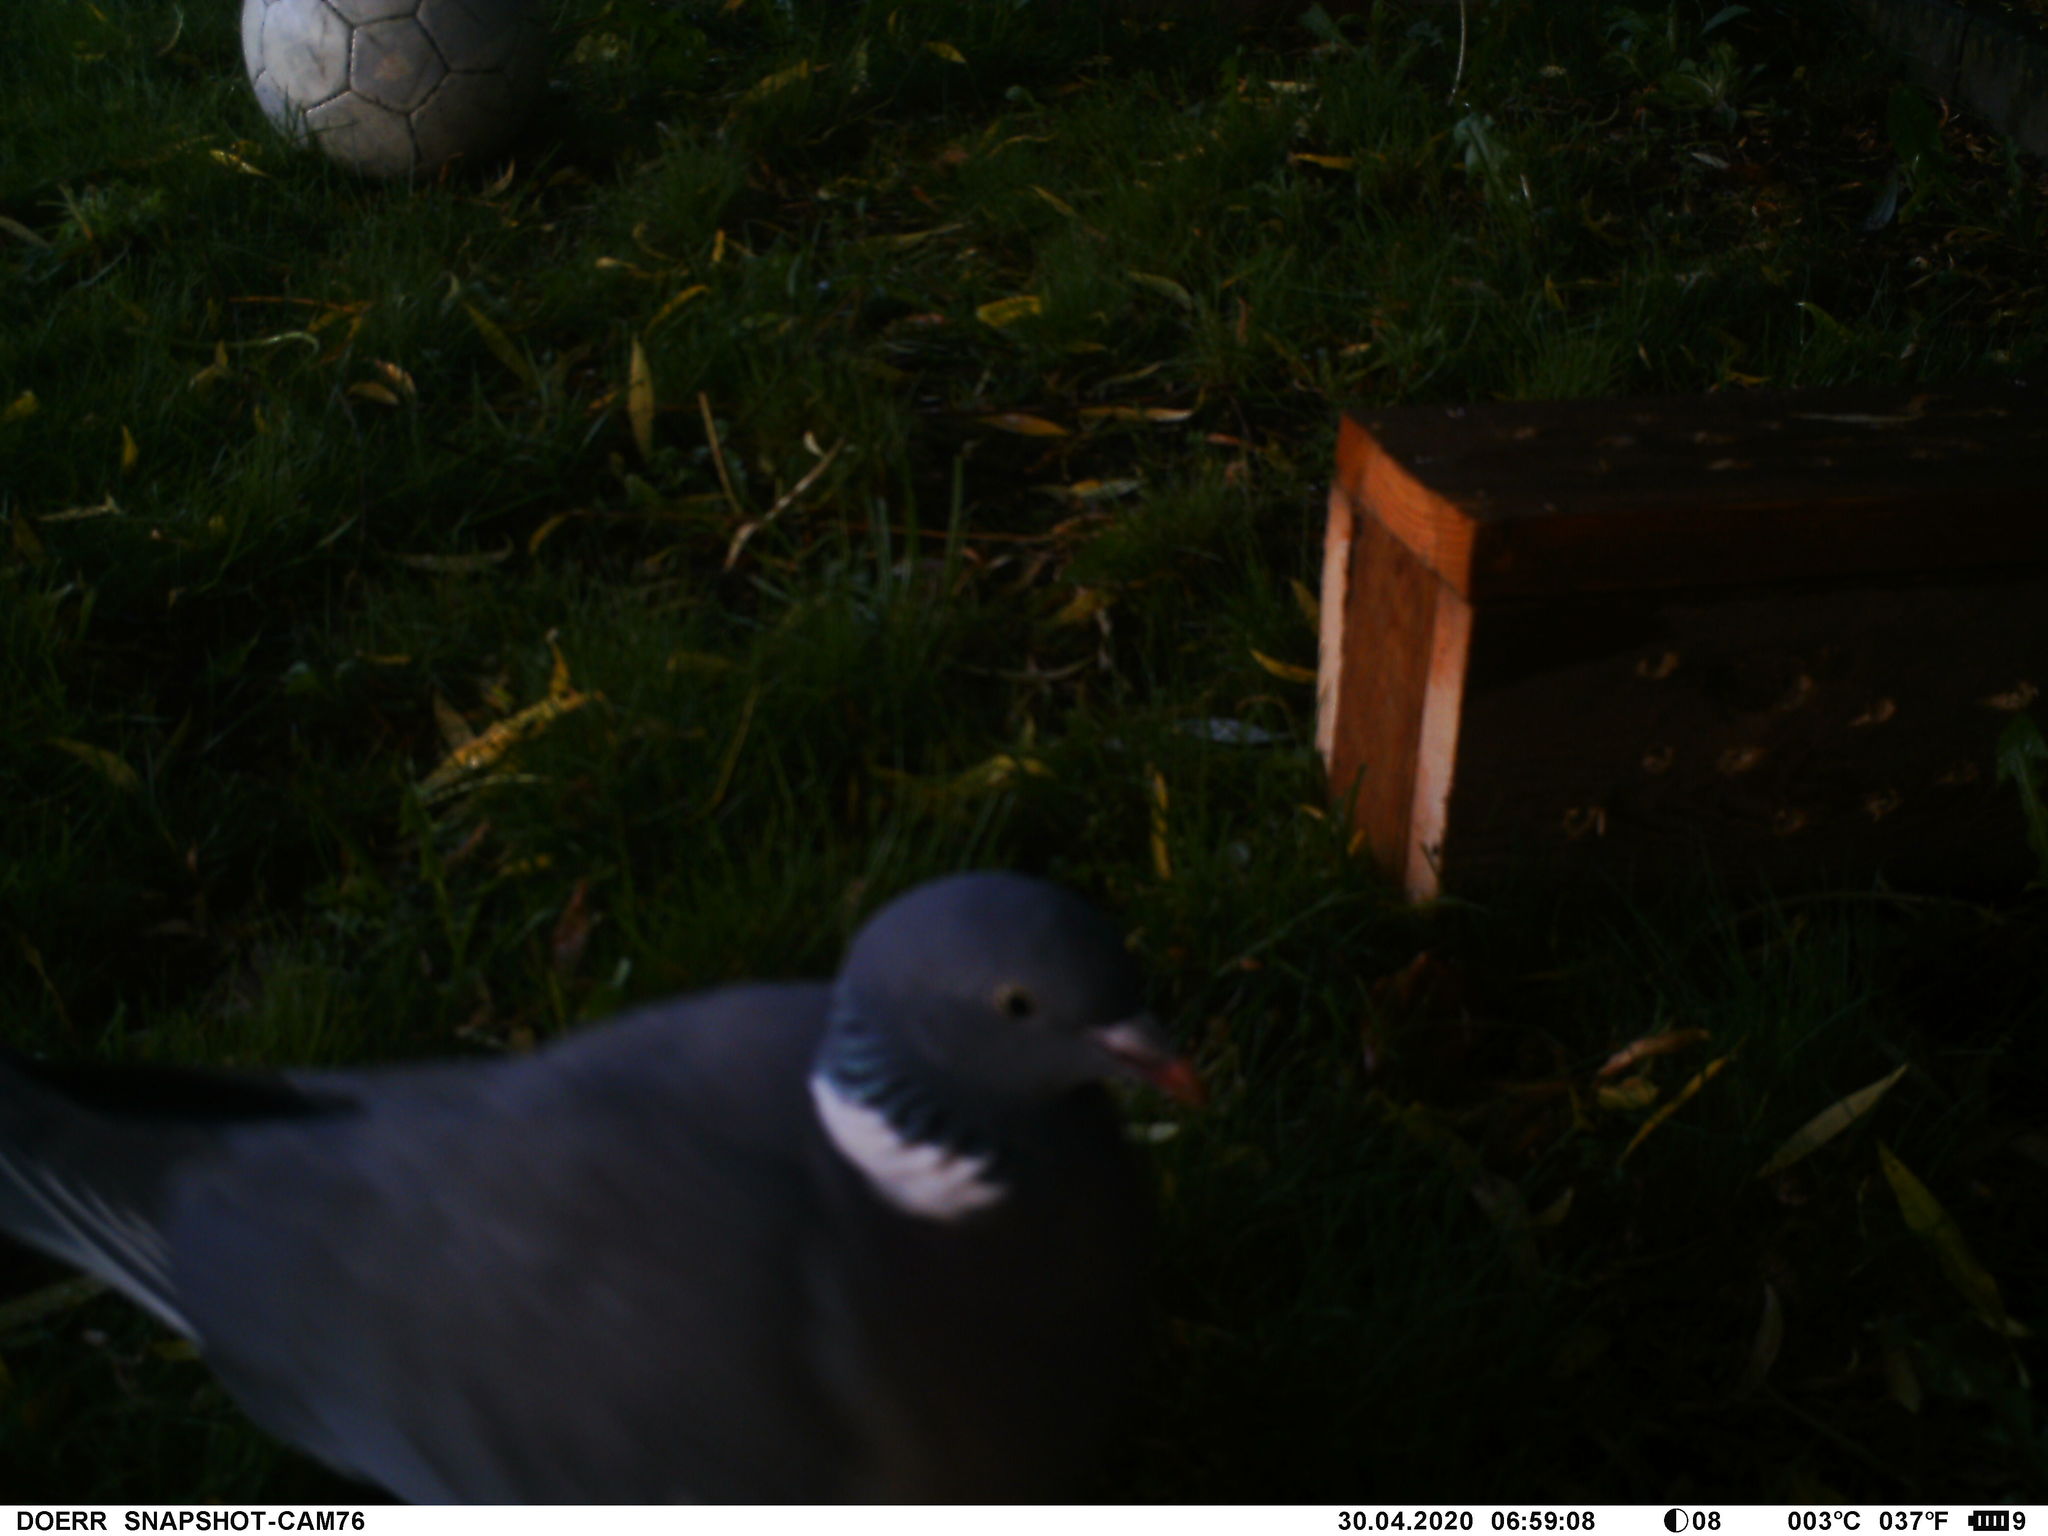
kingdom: Animalia
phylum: Chordata
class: Aves
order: Columbiformes
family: Columbidae
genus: Columba
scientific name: Columba palumbus
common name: Common wood pigeon
